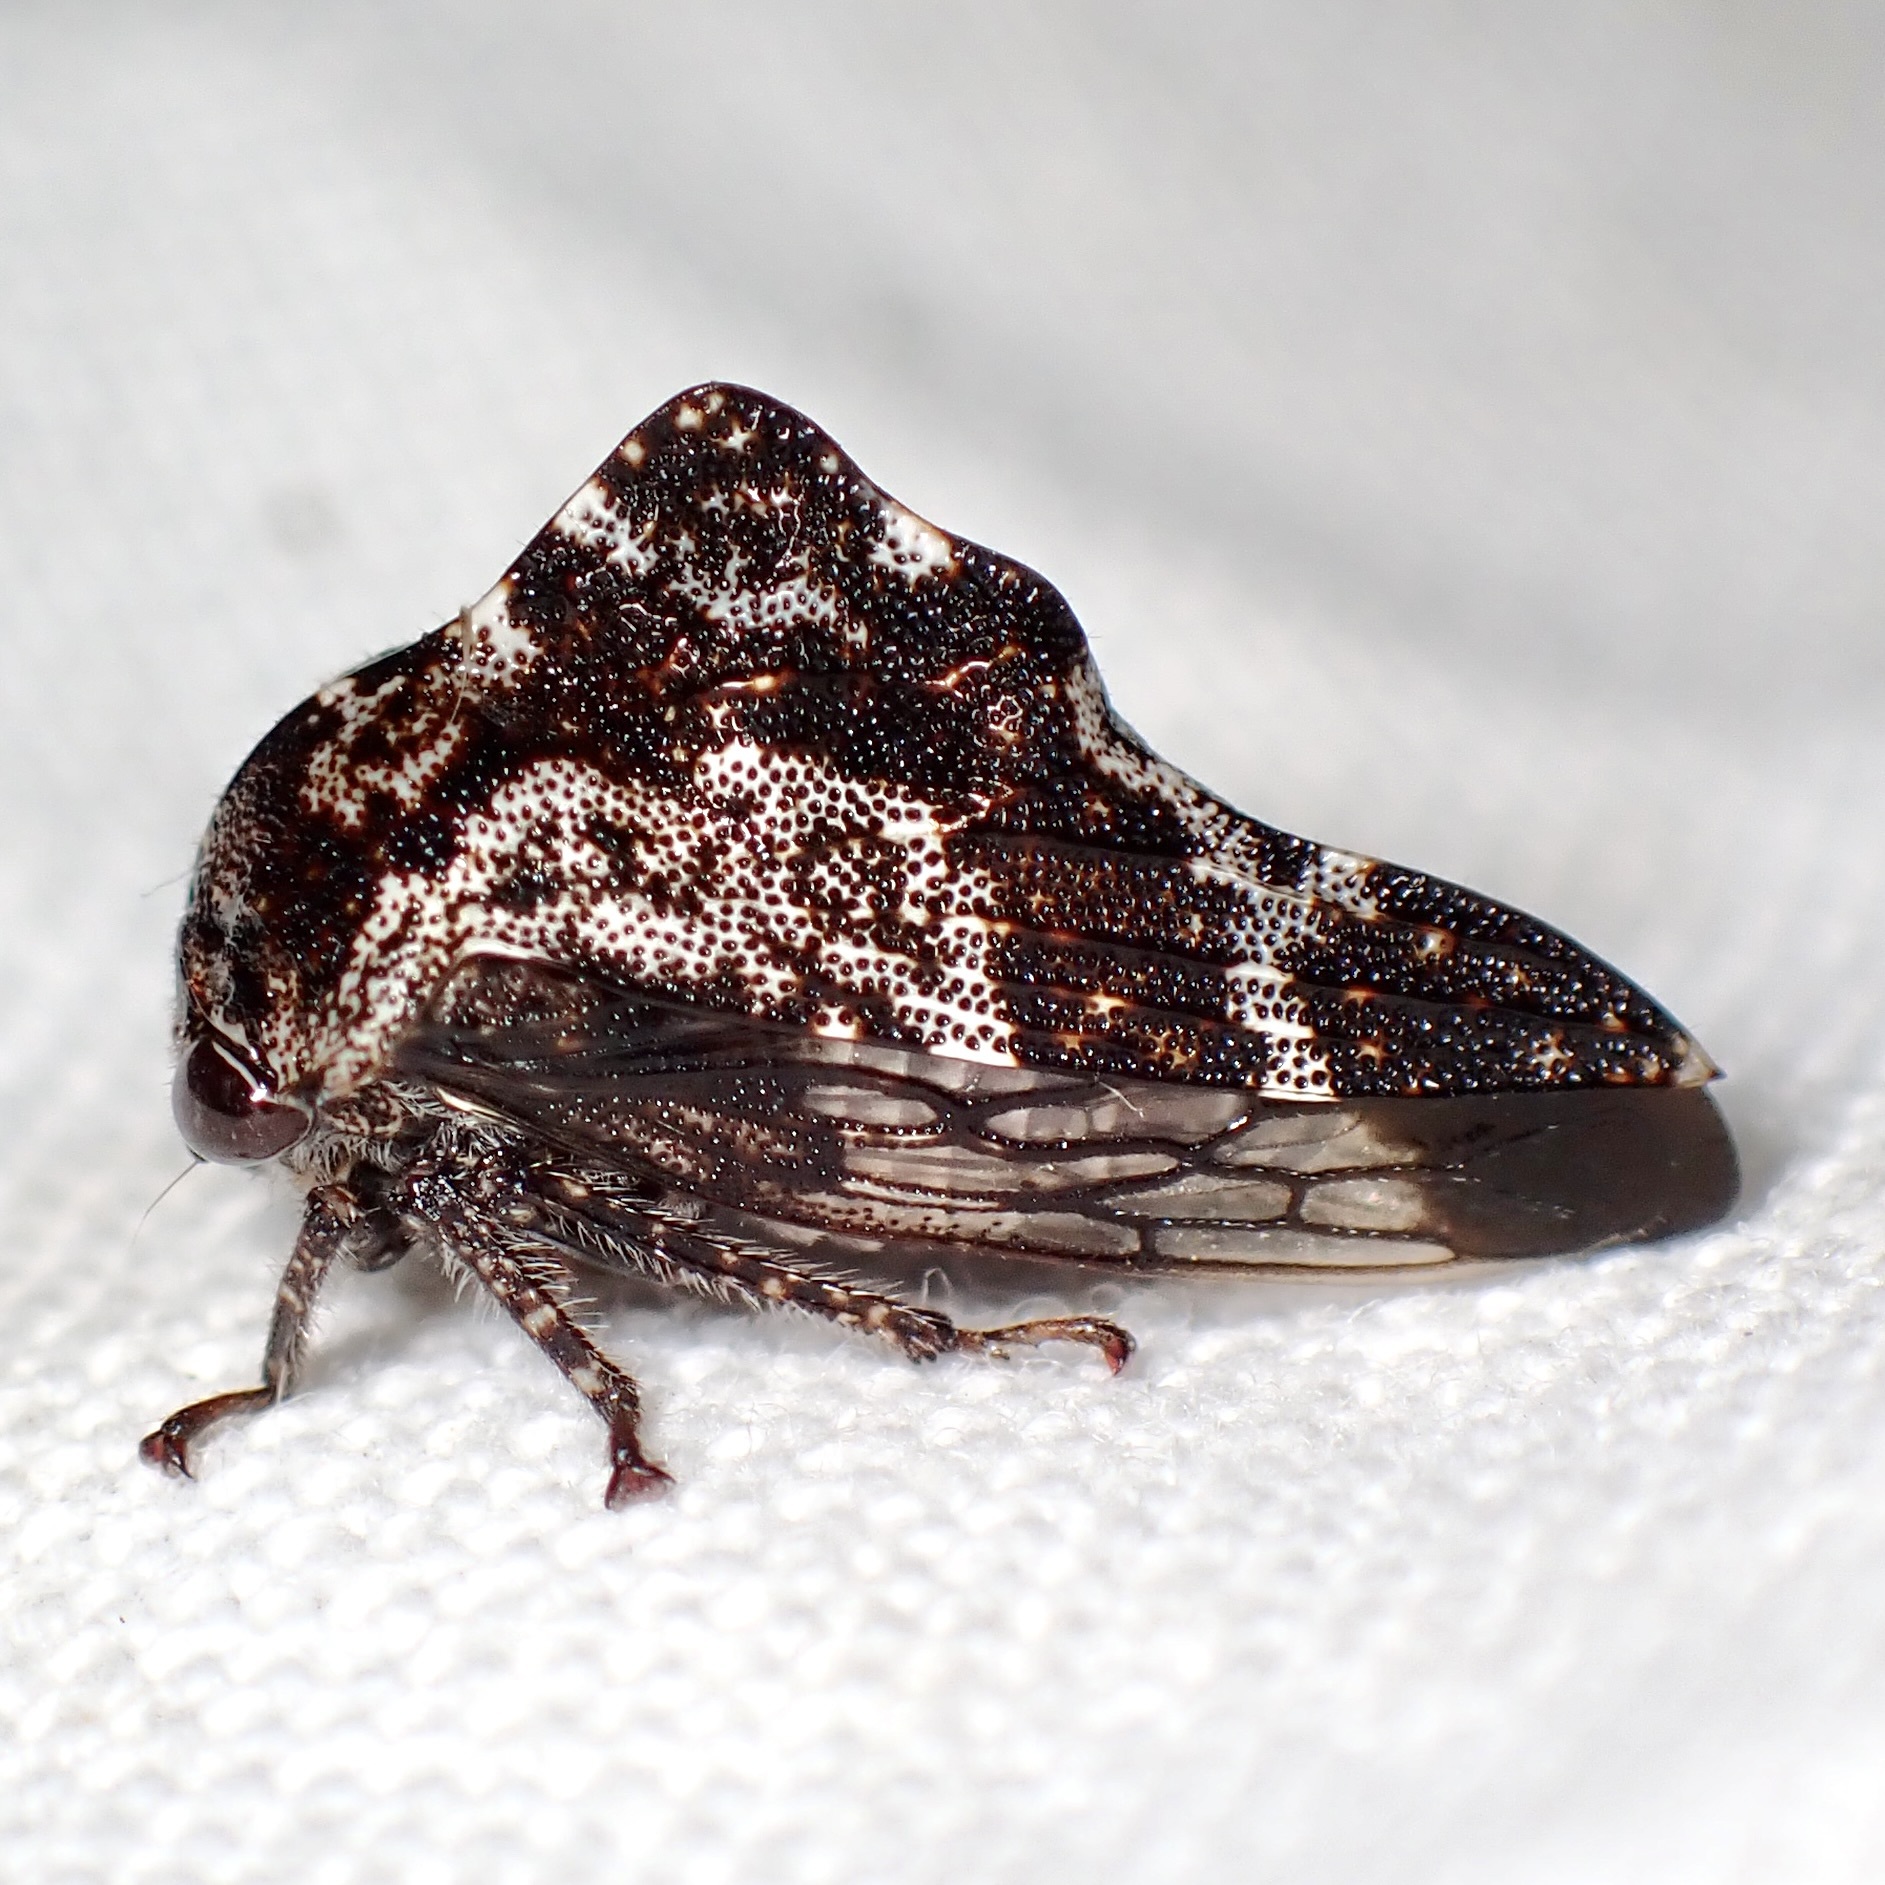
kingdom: Animalia
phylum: Arthropoda
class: Insecta
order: Hemiptera
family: Membracidae
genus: Heliria
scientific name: Heliria sinuata
